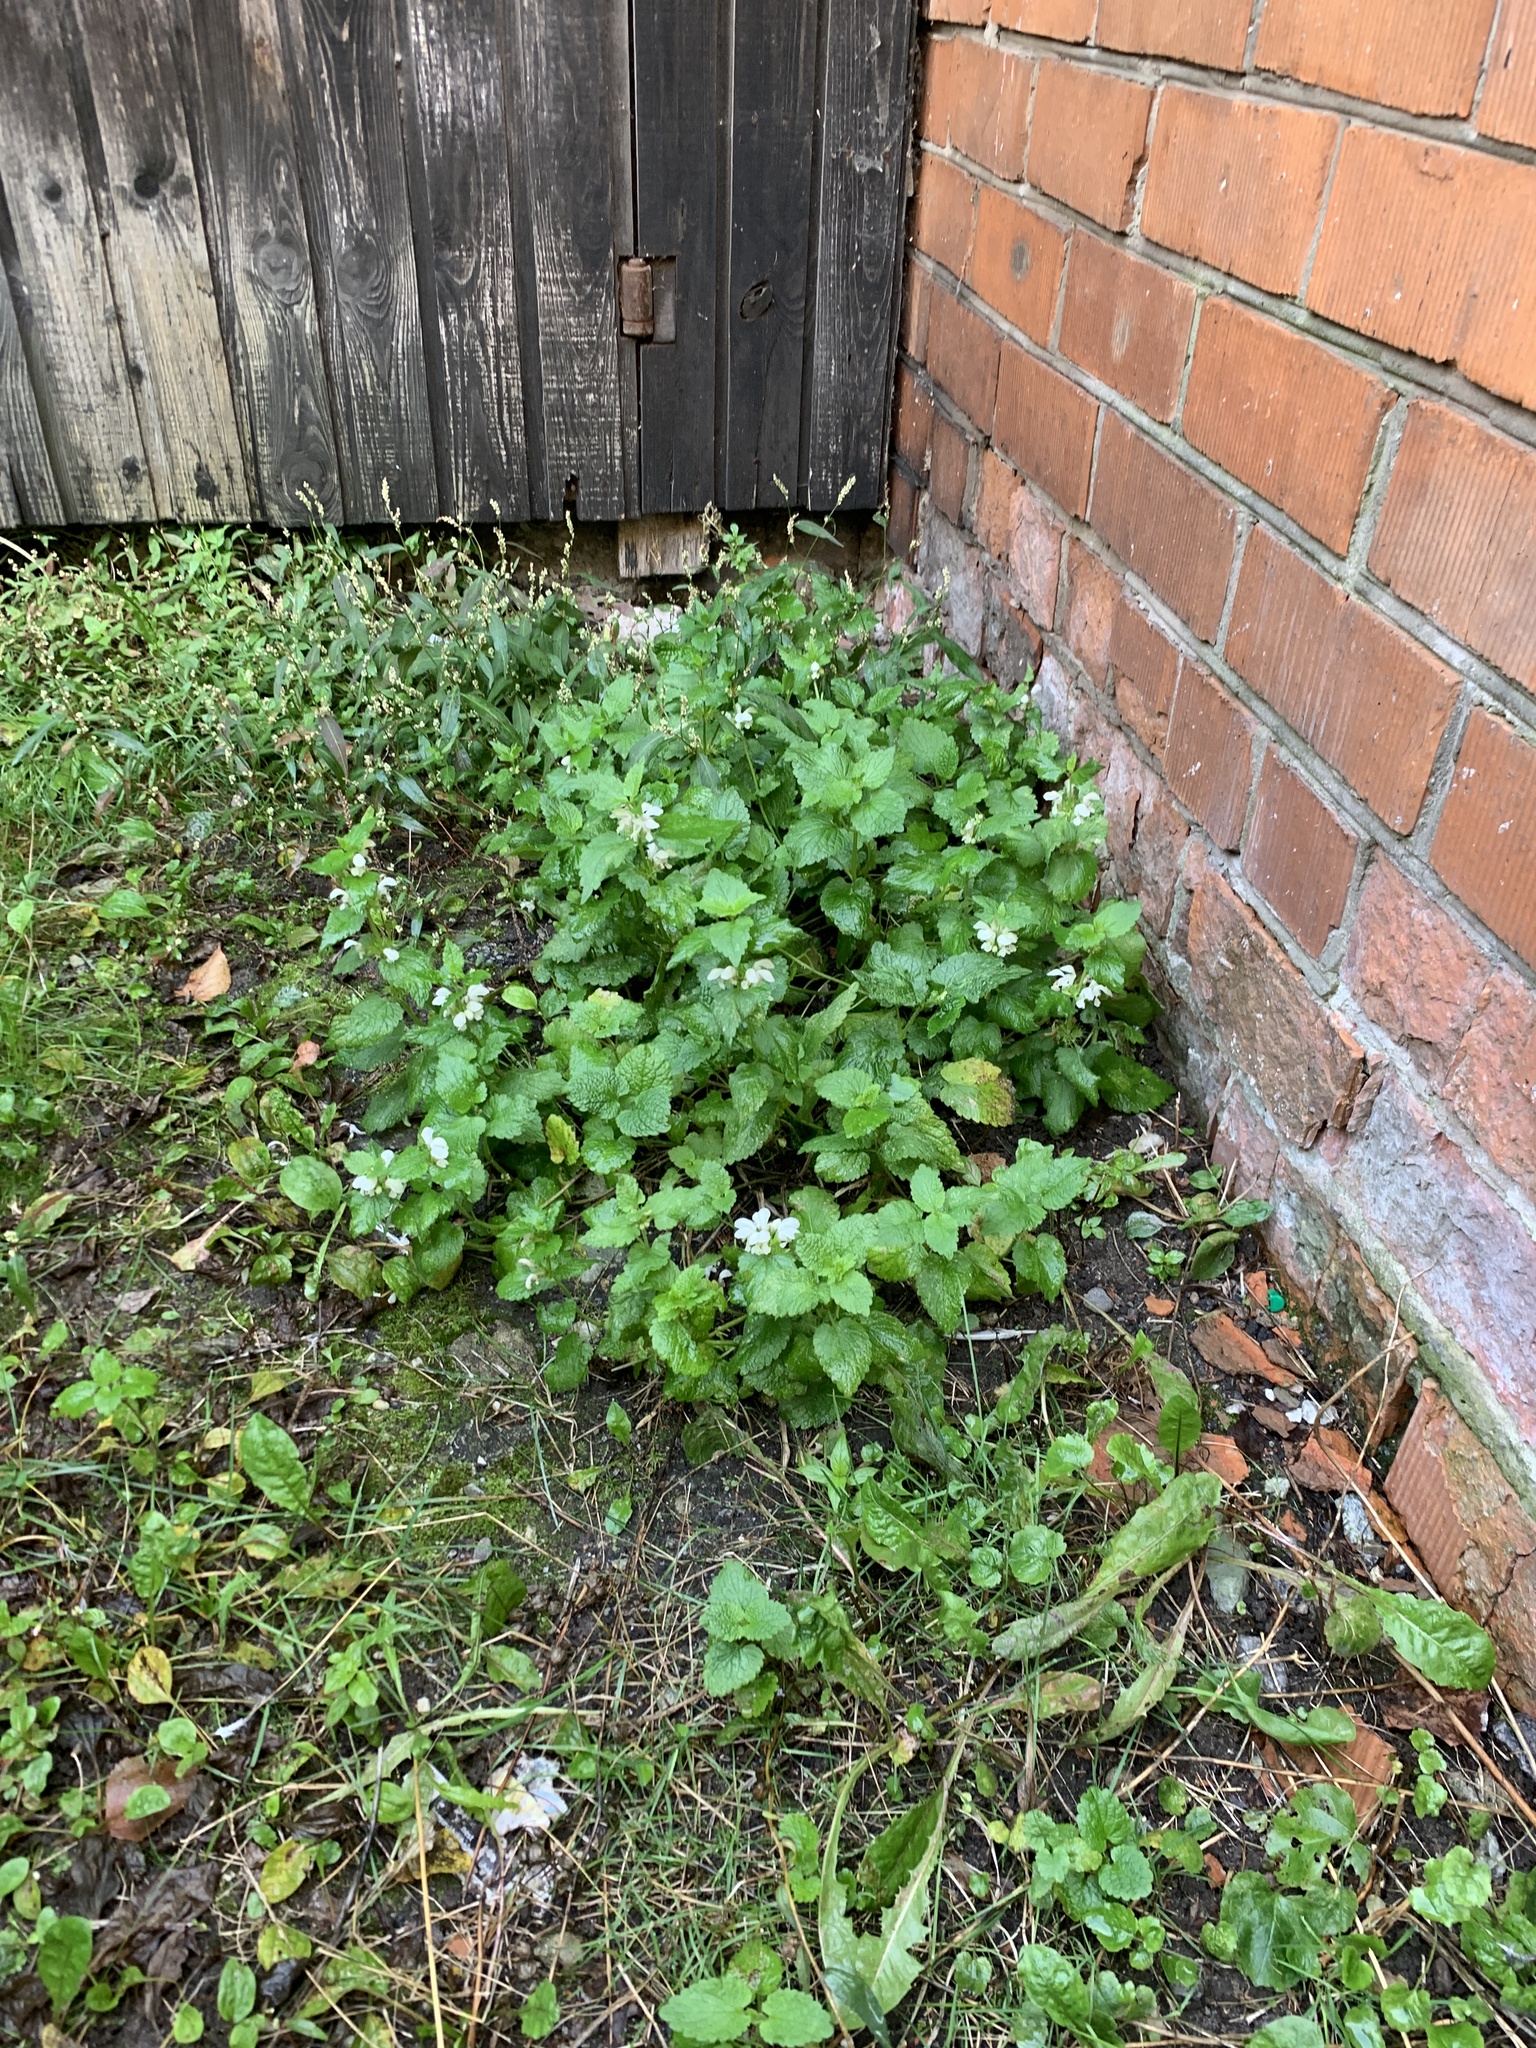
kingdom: Plantae
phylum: Tracheophyta
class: Magnoliopsida
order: Lamiales
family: Lamiaceae
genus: Lamium
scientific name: Lamium album
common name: White dead-nettle
